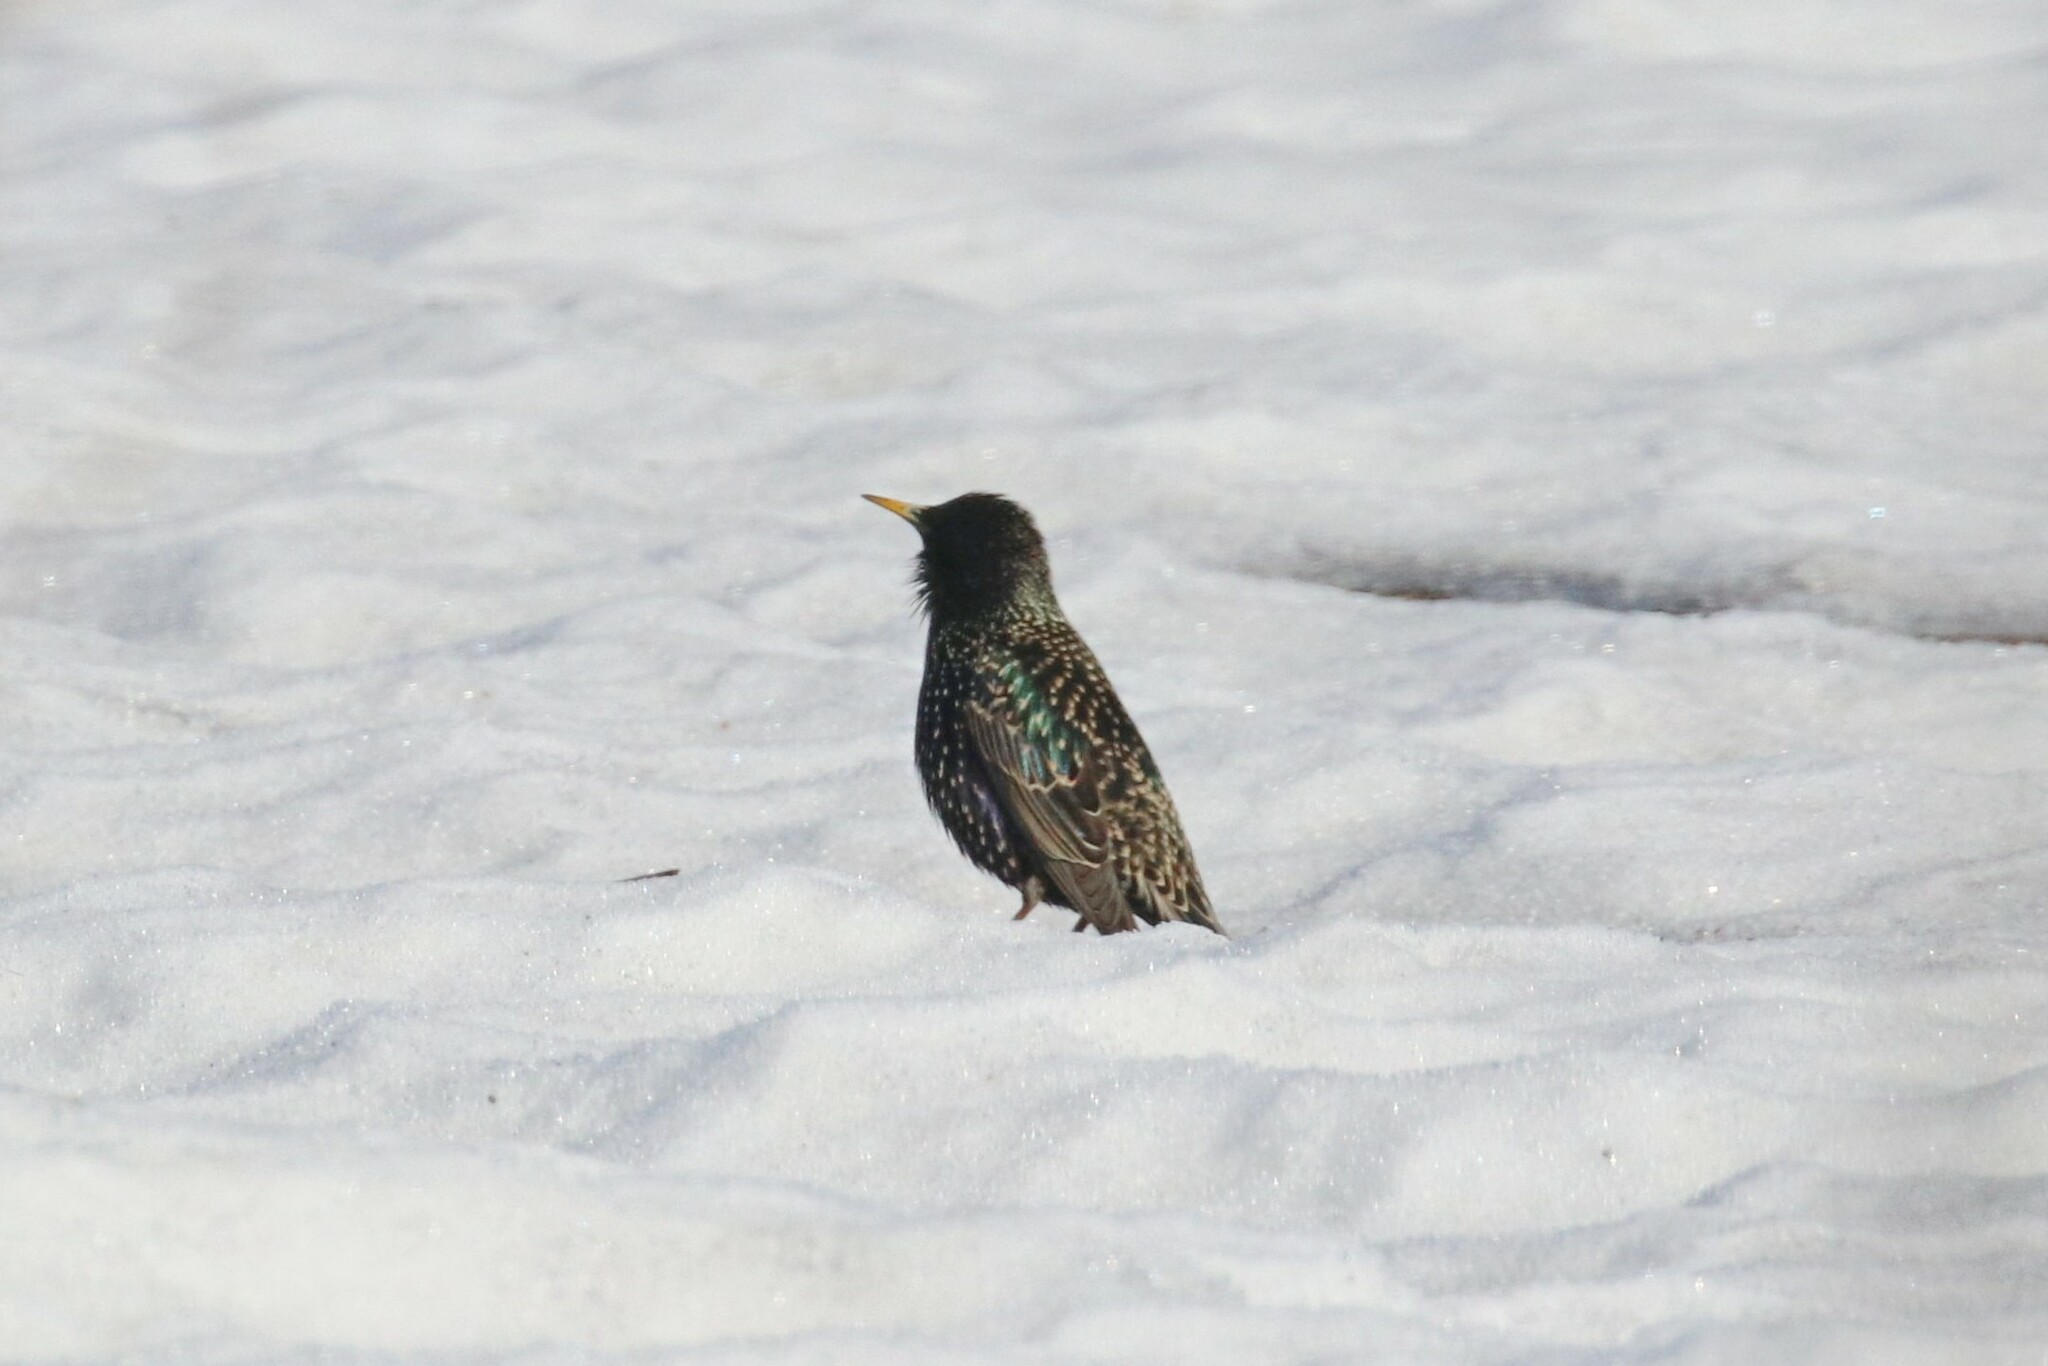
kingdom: Animalia
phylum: Chordata
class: Aves
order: Passeriformes
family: Sturnidae
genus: Sturnus
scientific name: Sturnus vulgaris
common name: Common starling
